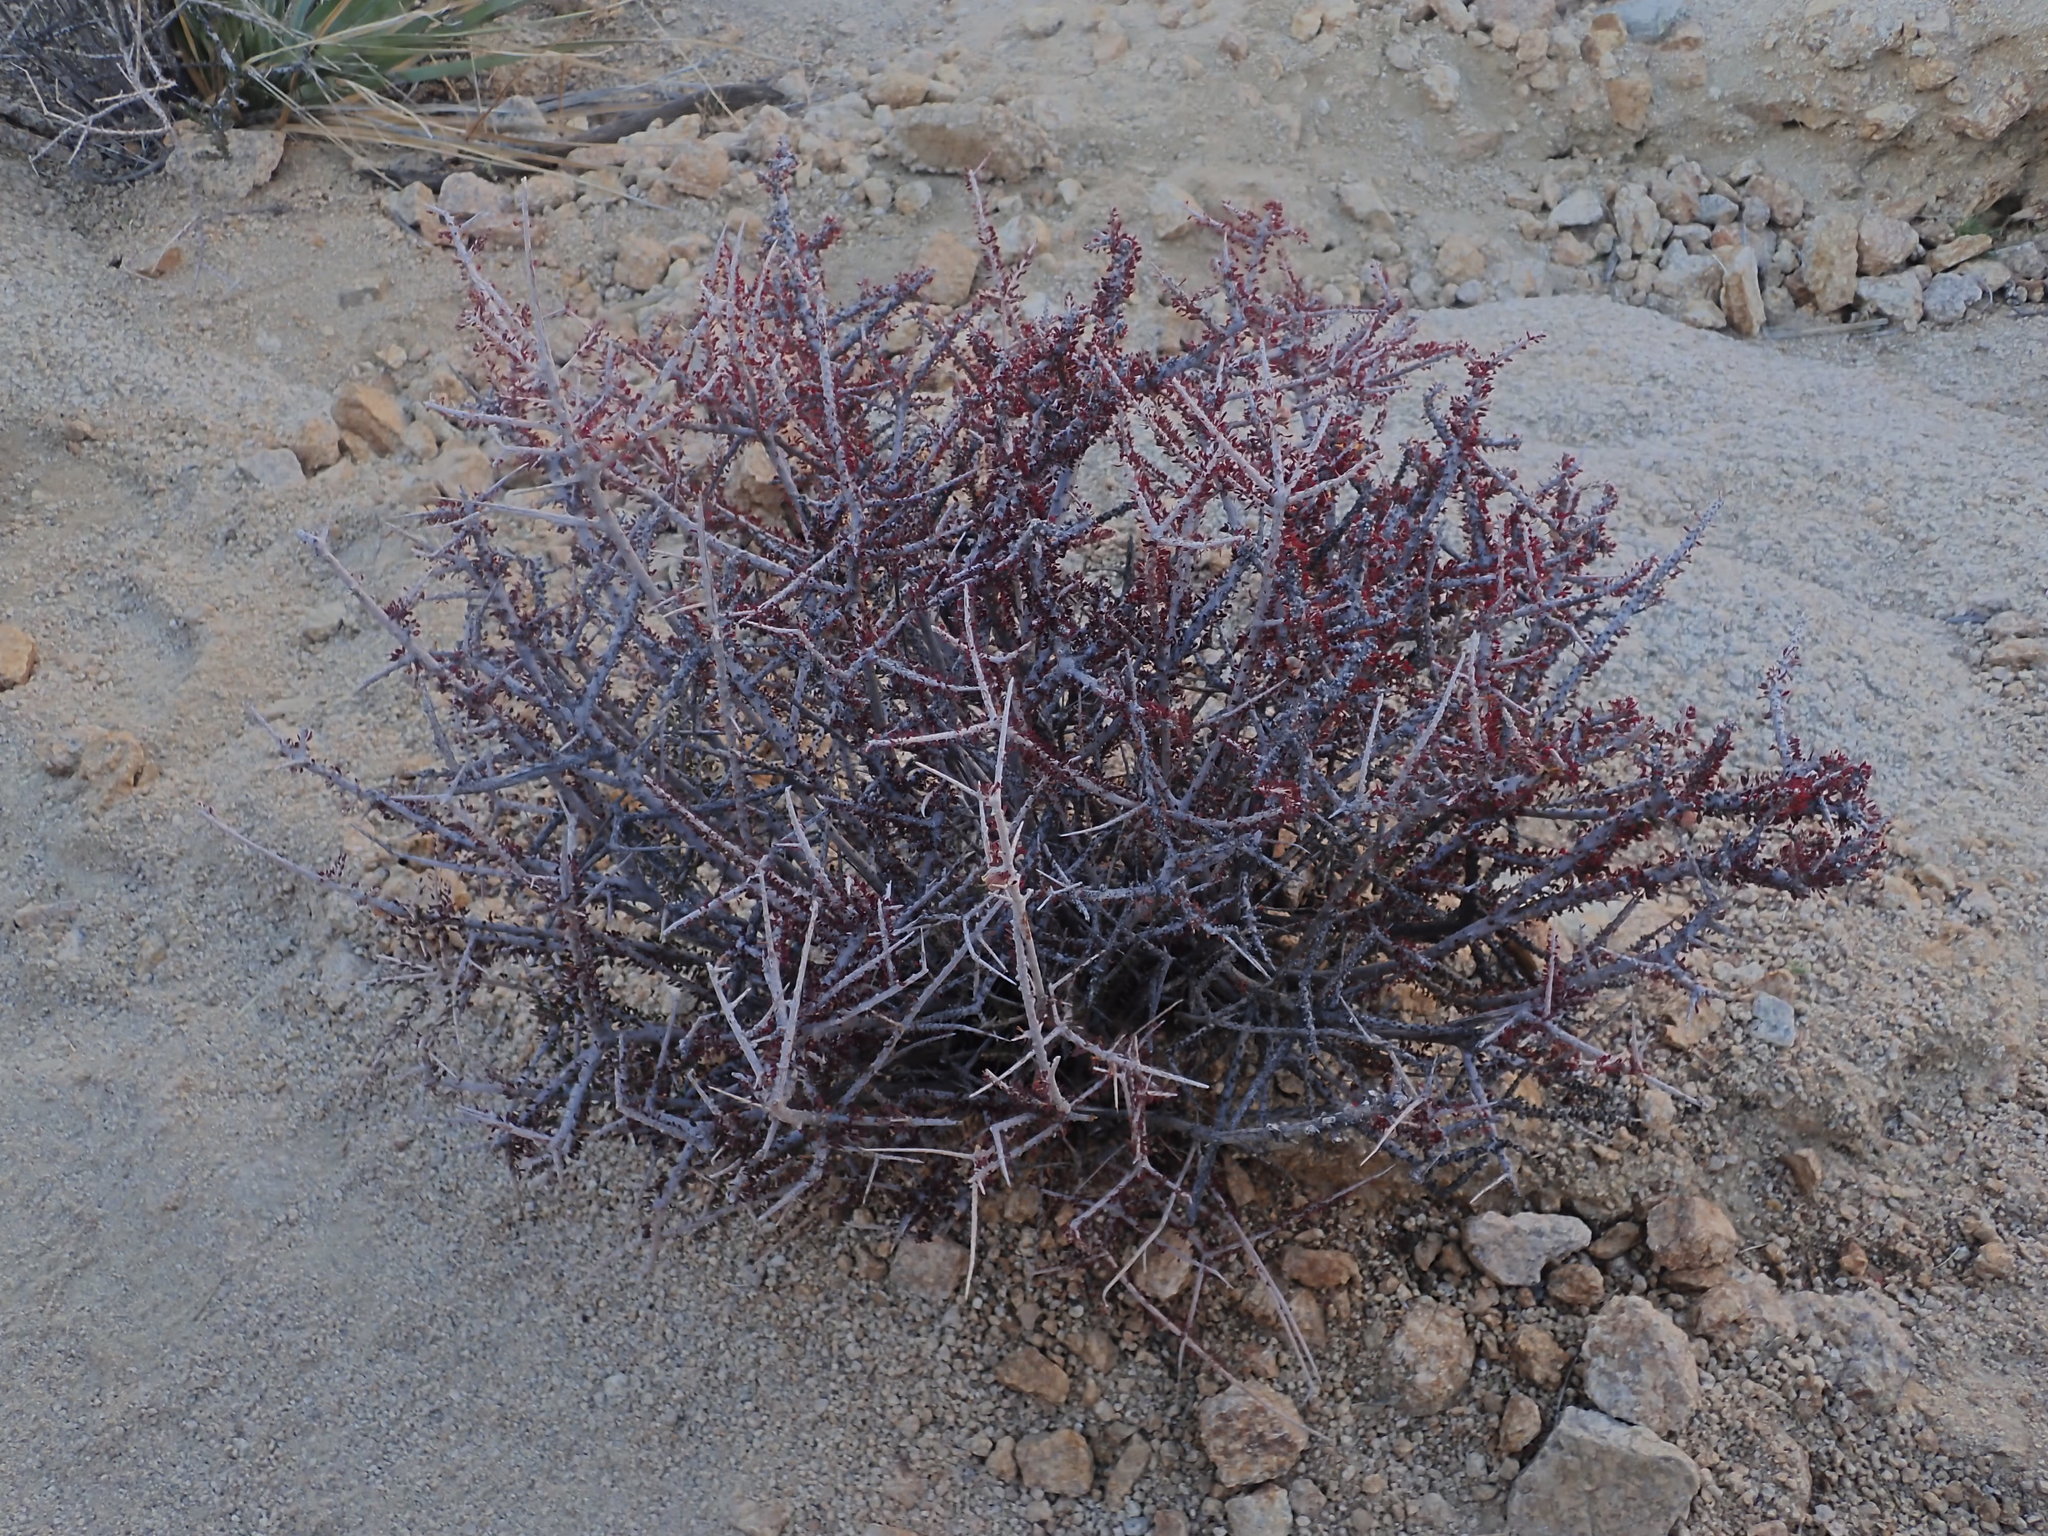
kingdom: Plantae
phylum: Tracheophyta
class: Magnoliopsida
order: Malpighiales
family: Picrodendraceae
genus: Tetracoccus
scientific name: Tetracoccus hallii
